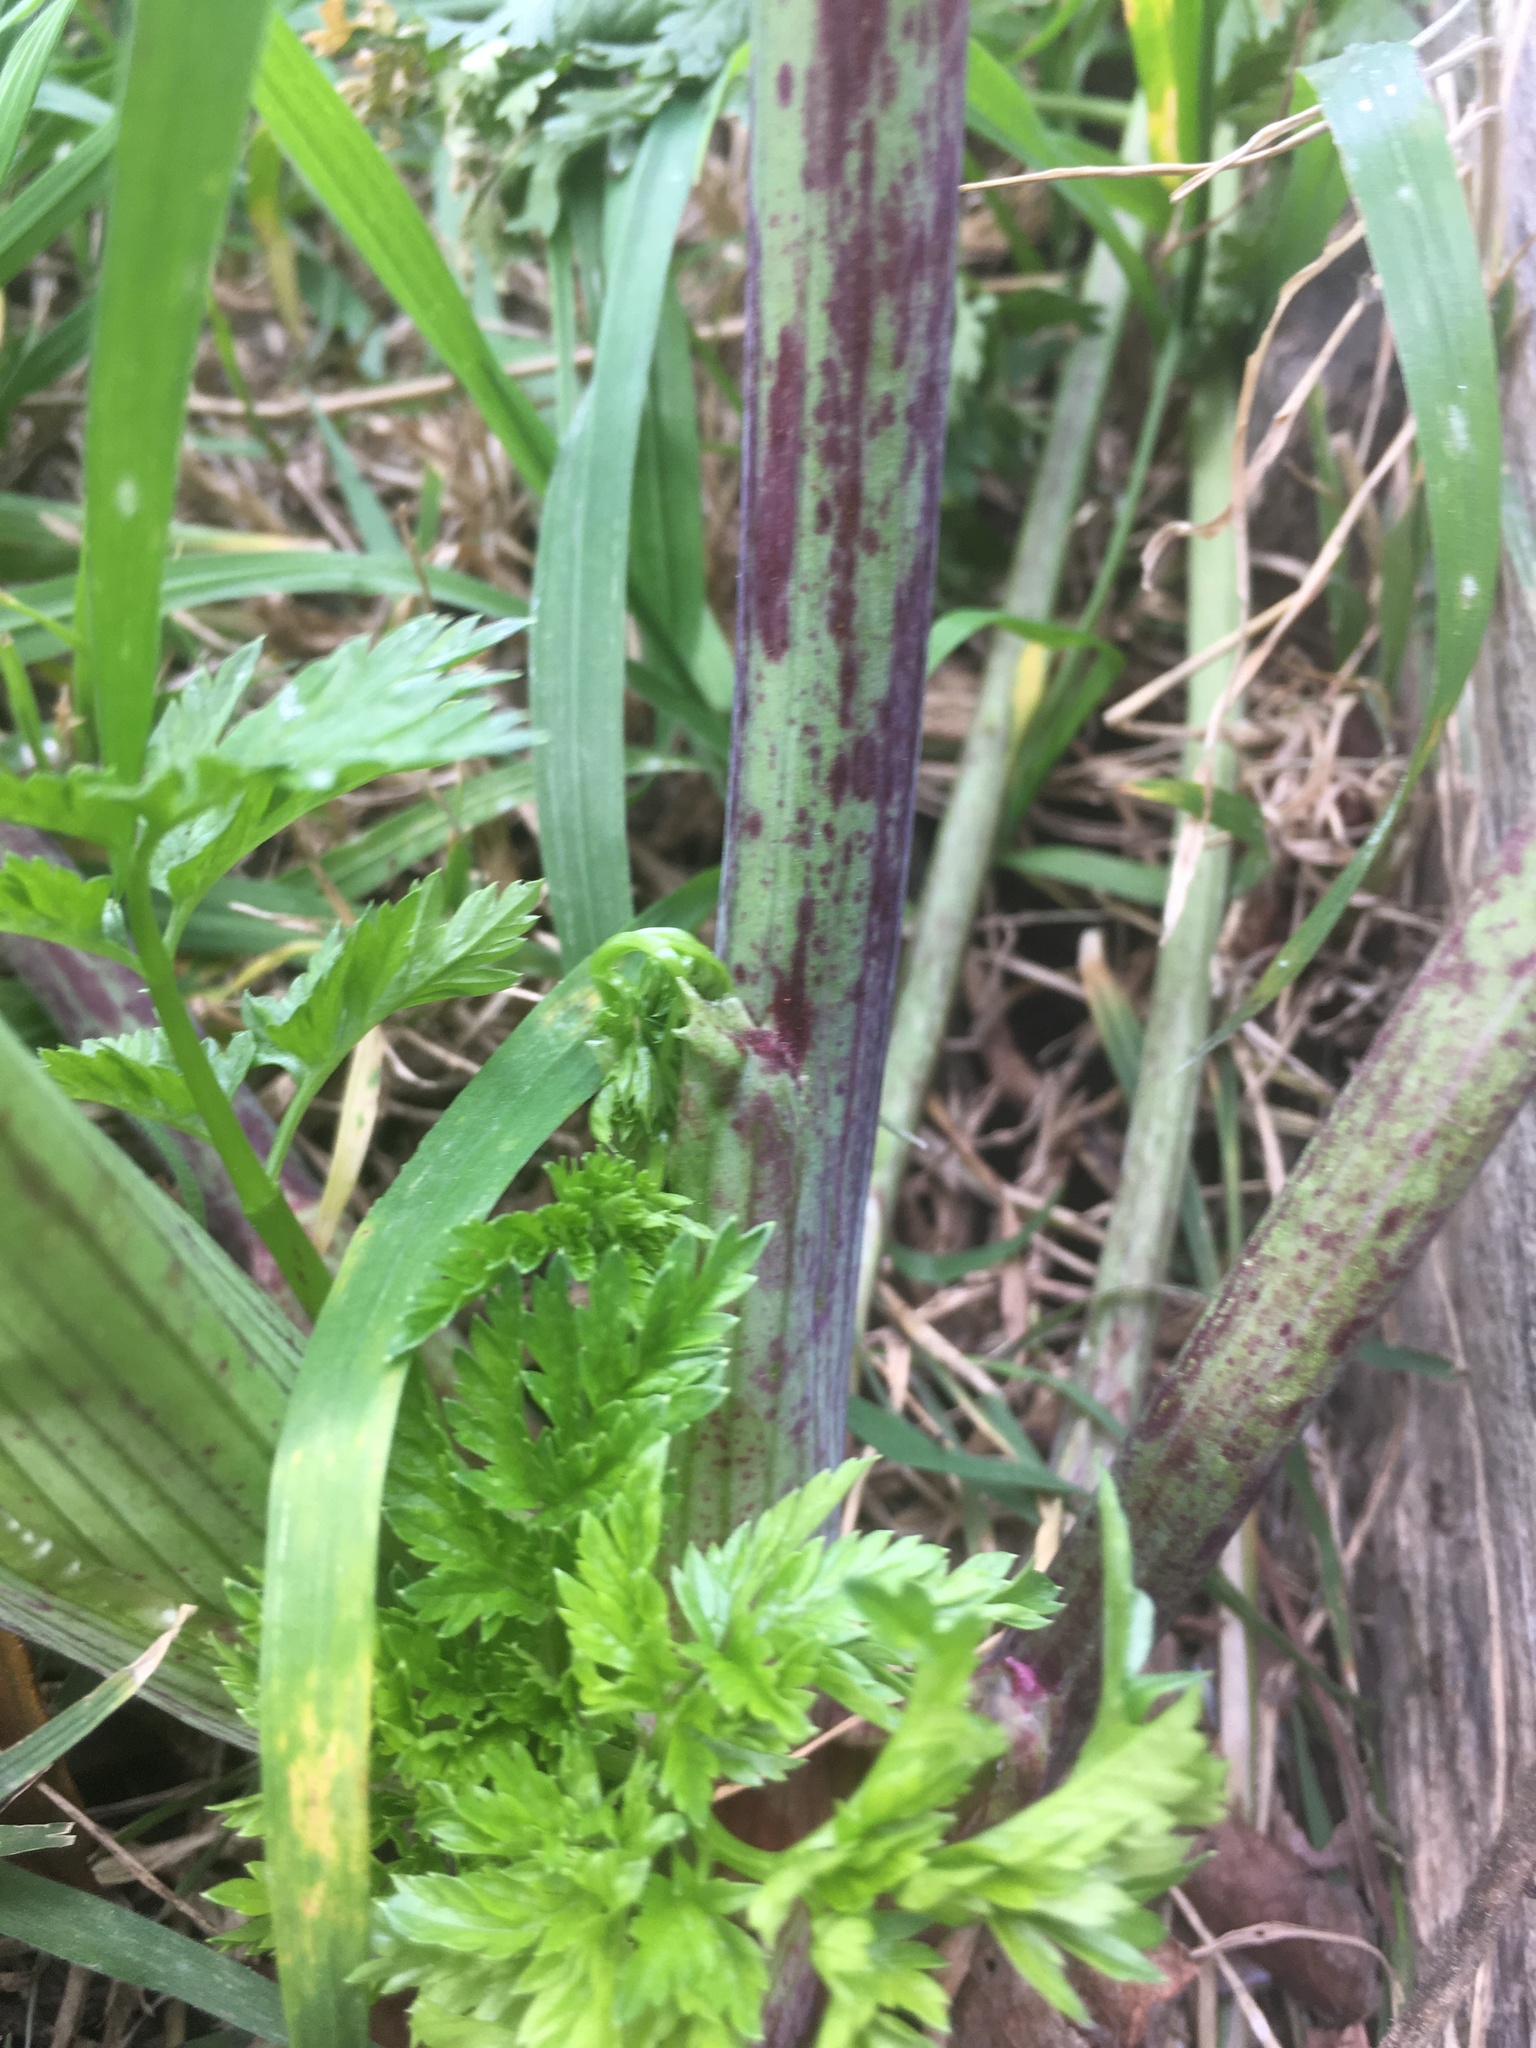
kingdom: Plantae
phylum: Tracheophyta
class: Magnoliopsida
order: Apiales
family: Apiaceae
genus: Conium
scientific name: Conium maculatum
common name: Hemlock
